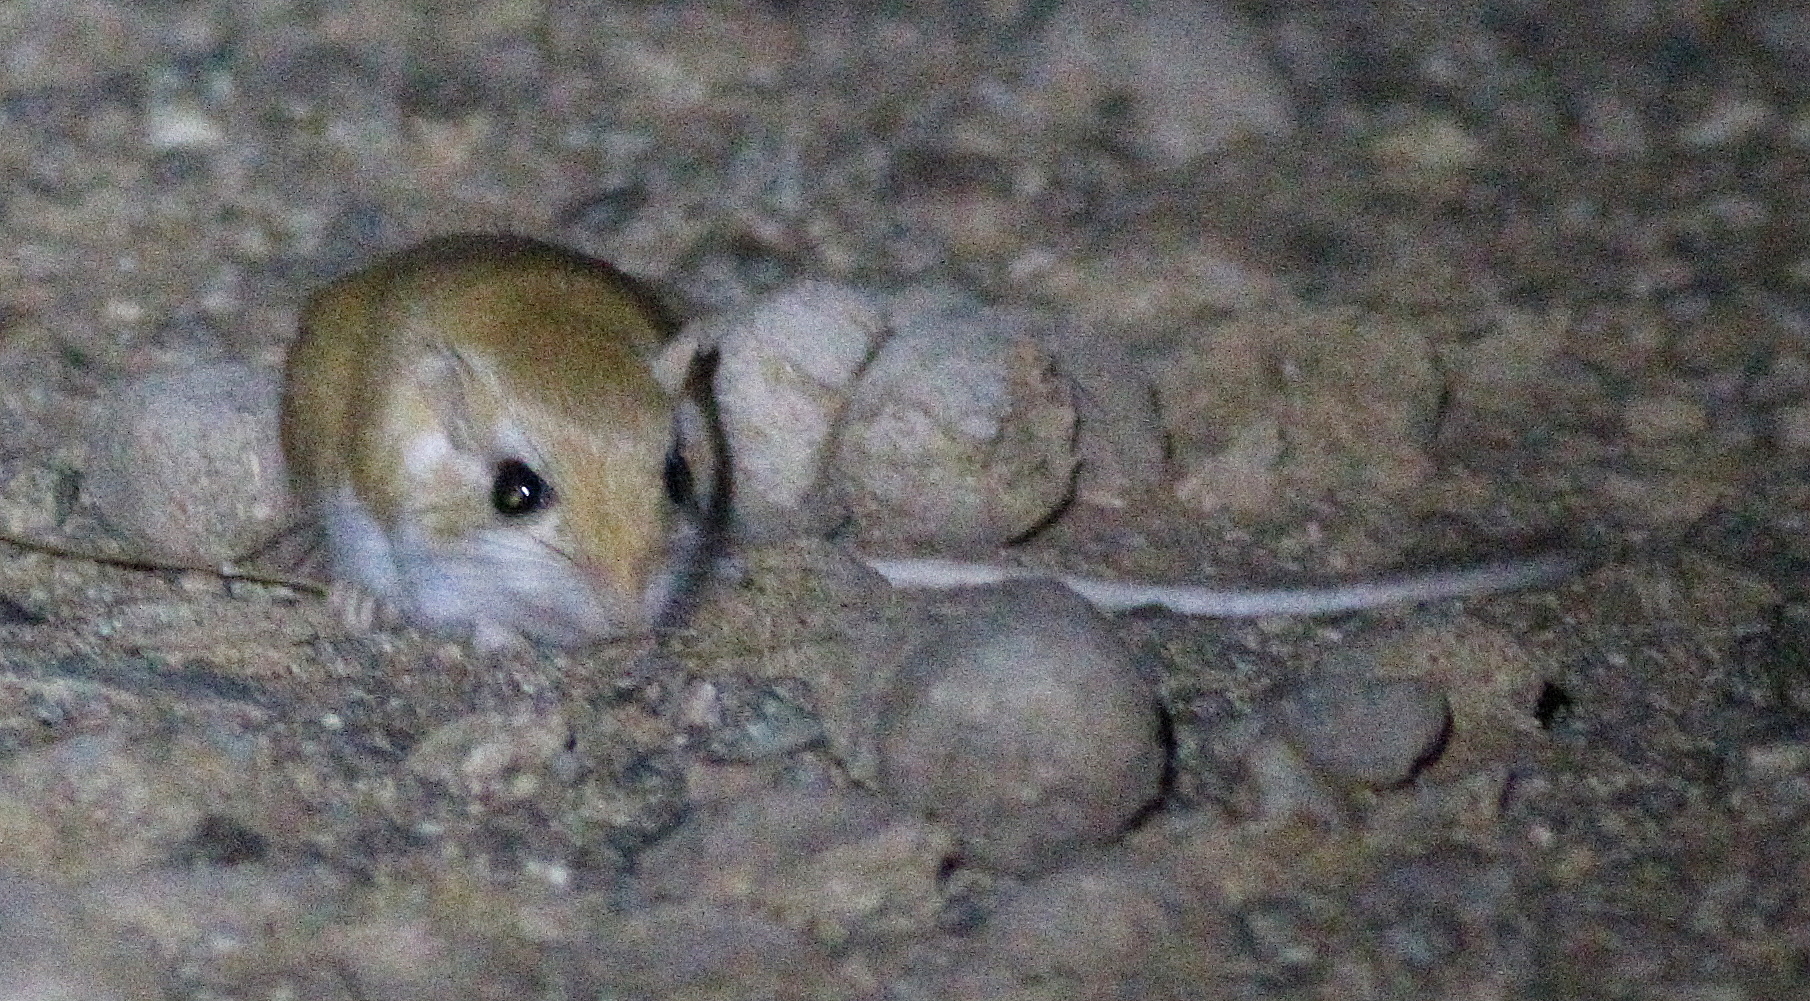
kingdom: Animalia
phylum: Chordata
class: Mammalia
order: Rodentia
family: Muridae
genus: Gerbillus
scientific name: Gerbillus gerbillus
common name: Lesser egyptian gerbil
